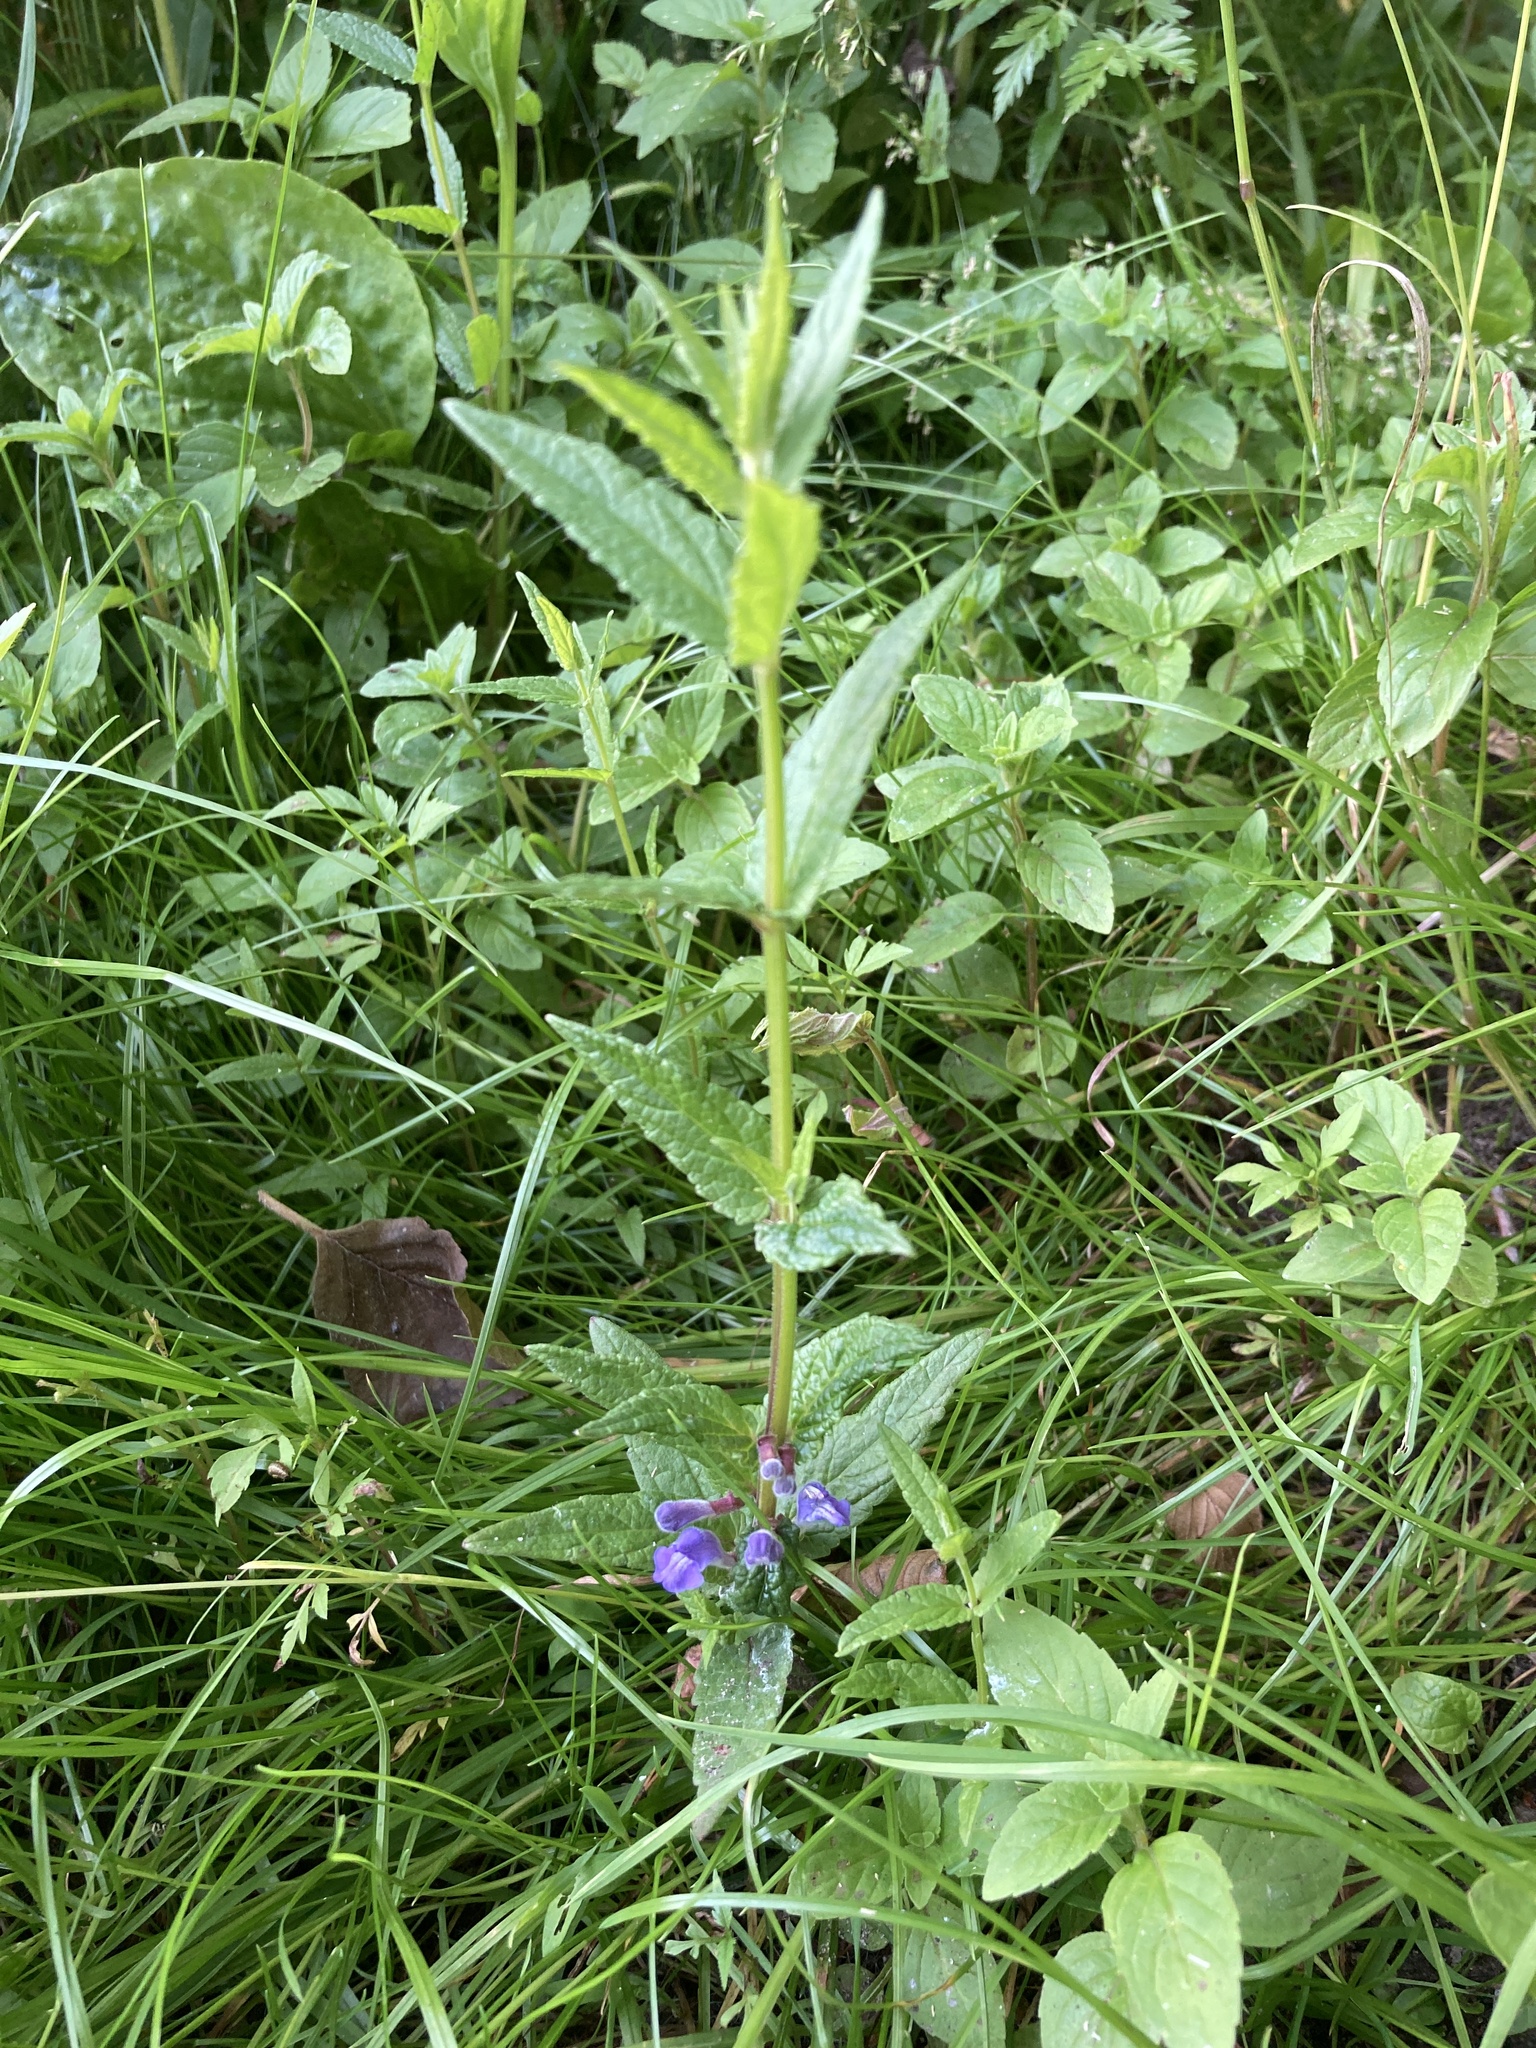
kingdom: Plantae
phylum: Tracheophyta
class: Magnoliopsida
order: Lamiales
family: Lamiaceae
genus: Scutellaria
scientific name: Scutellaria galericulata
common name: Skullcap
